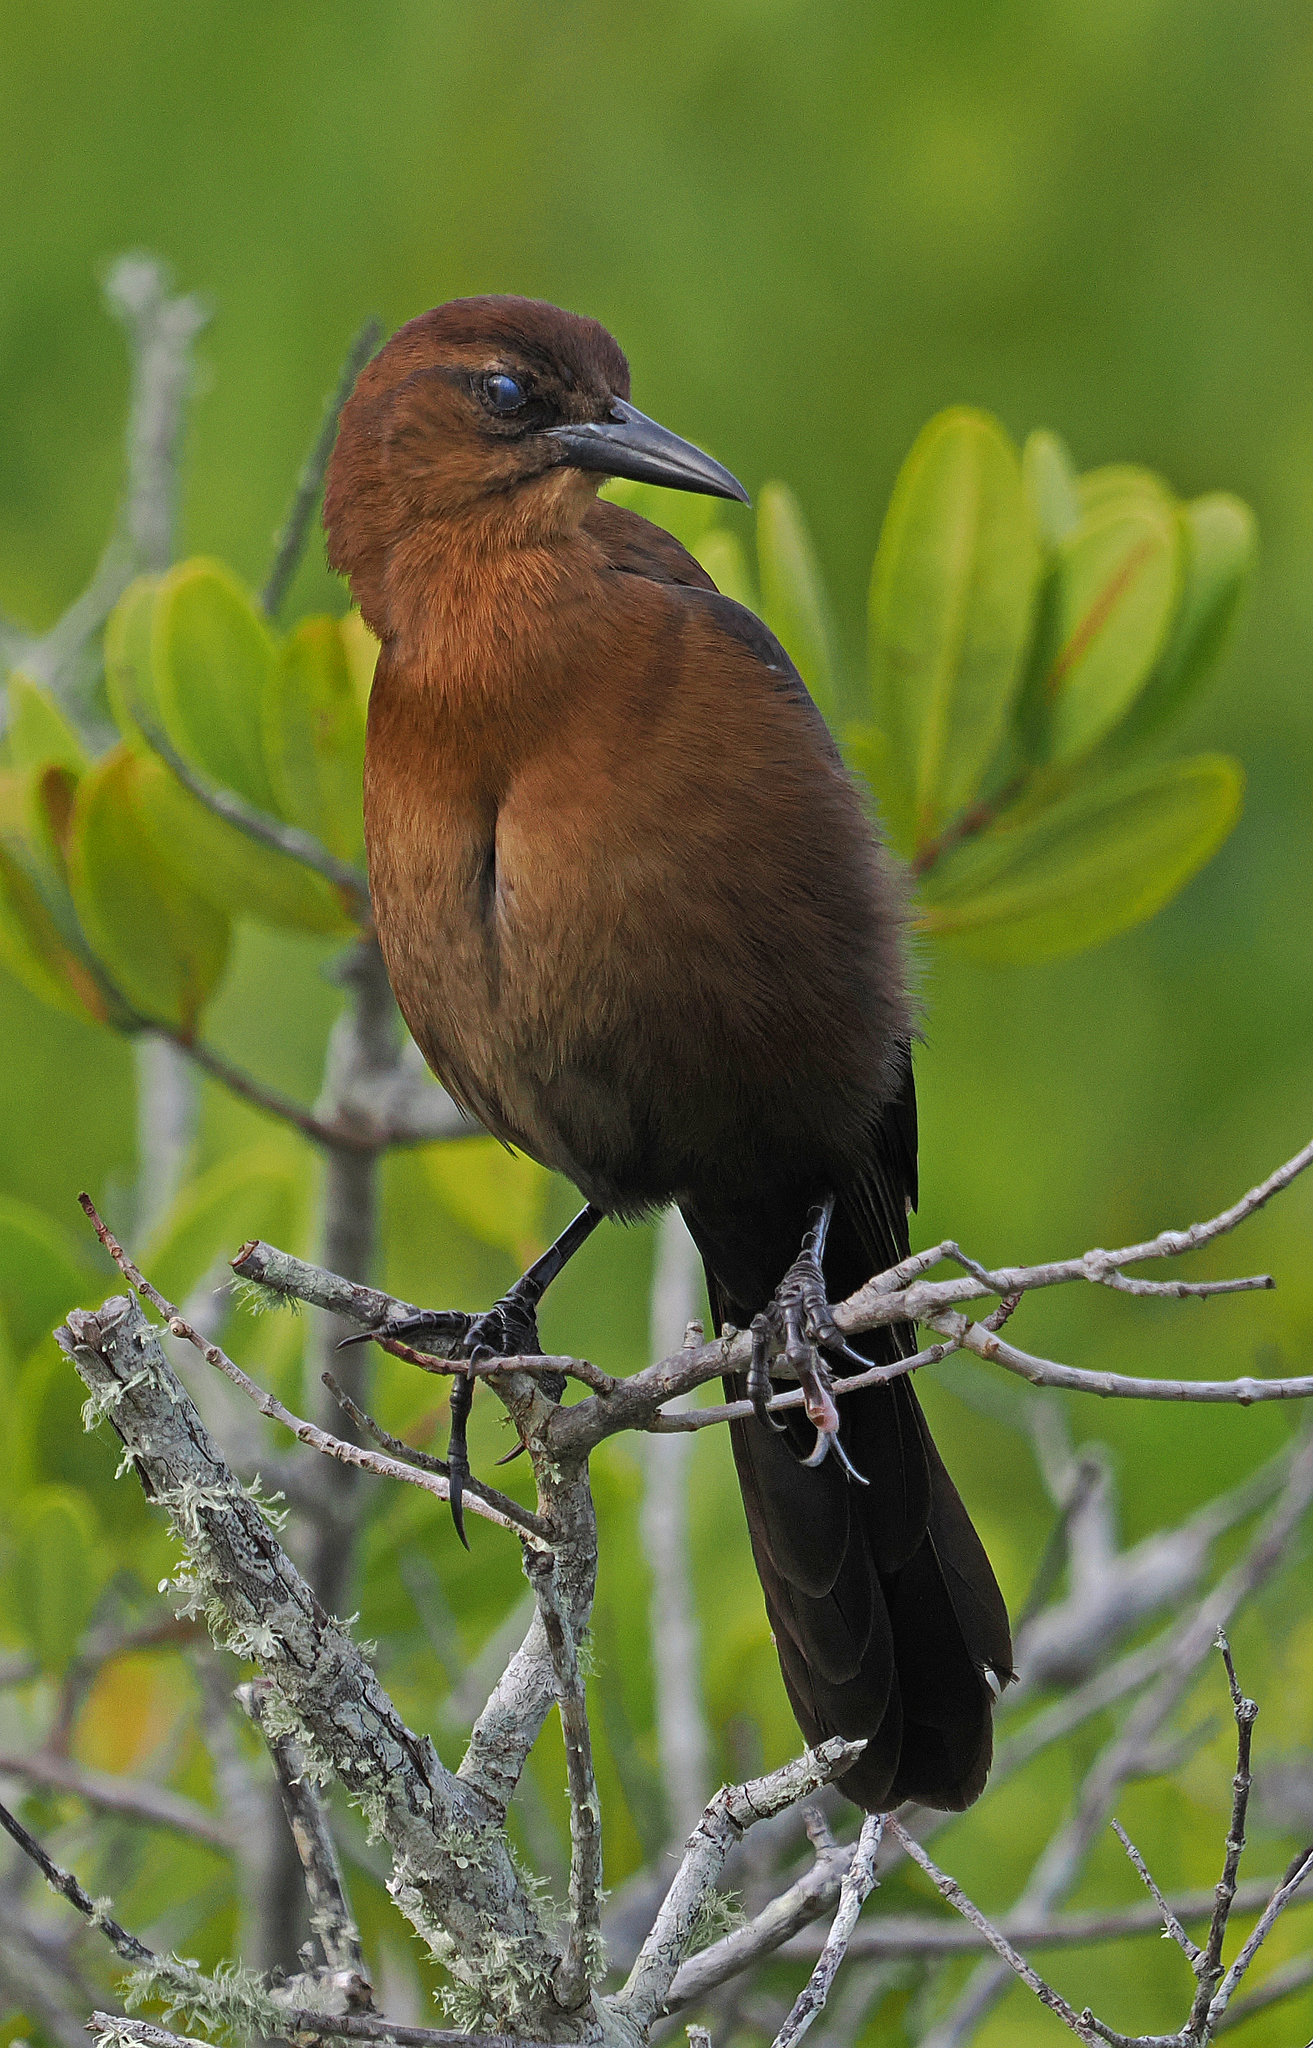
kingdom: Animalia
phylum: Chordata
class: Aves
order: Passeriformes
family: Icteridae
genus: Quiscalus
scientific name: Quiscalus major
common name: Boat-tailed grackle
